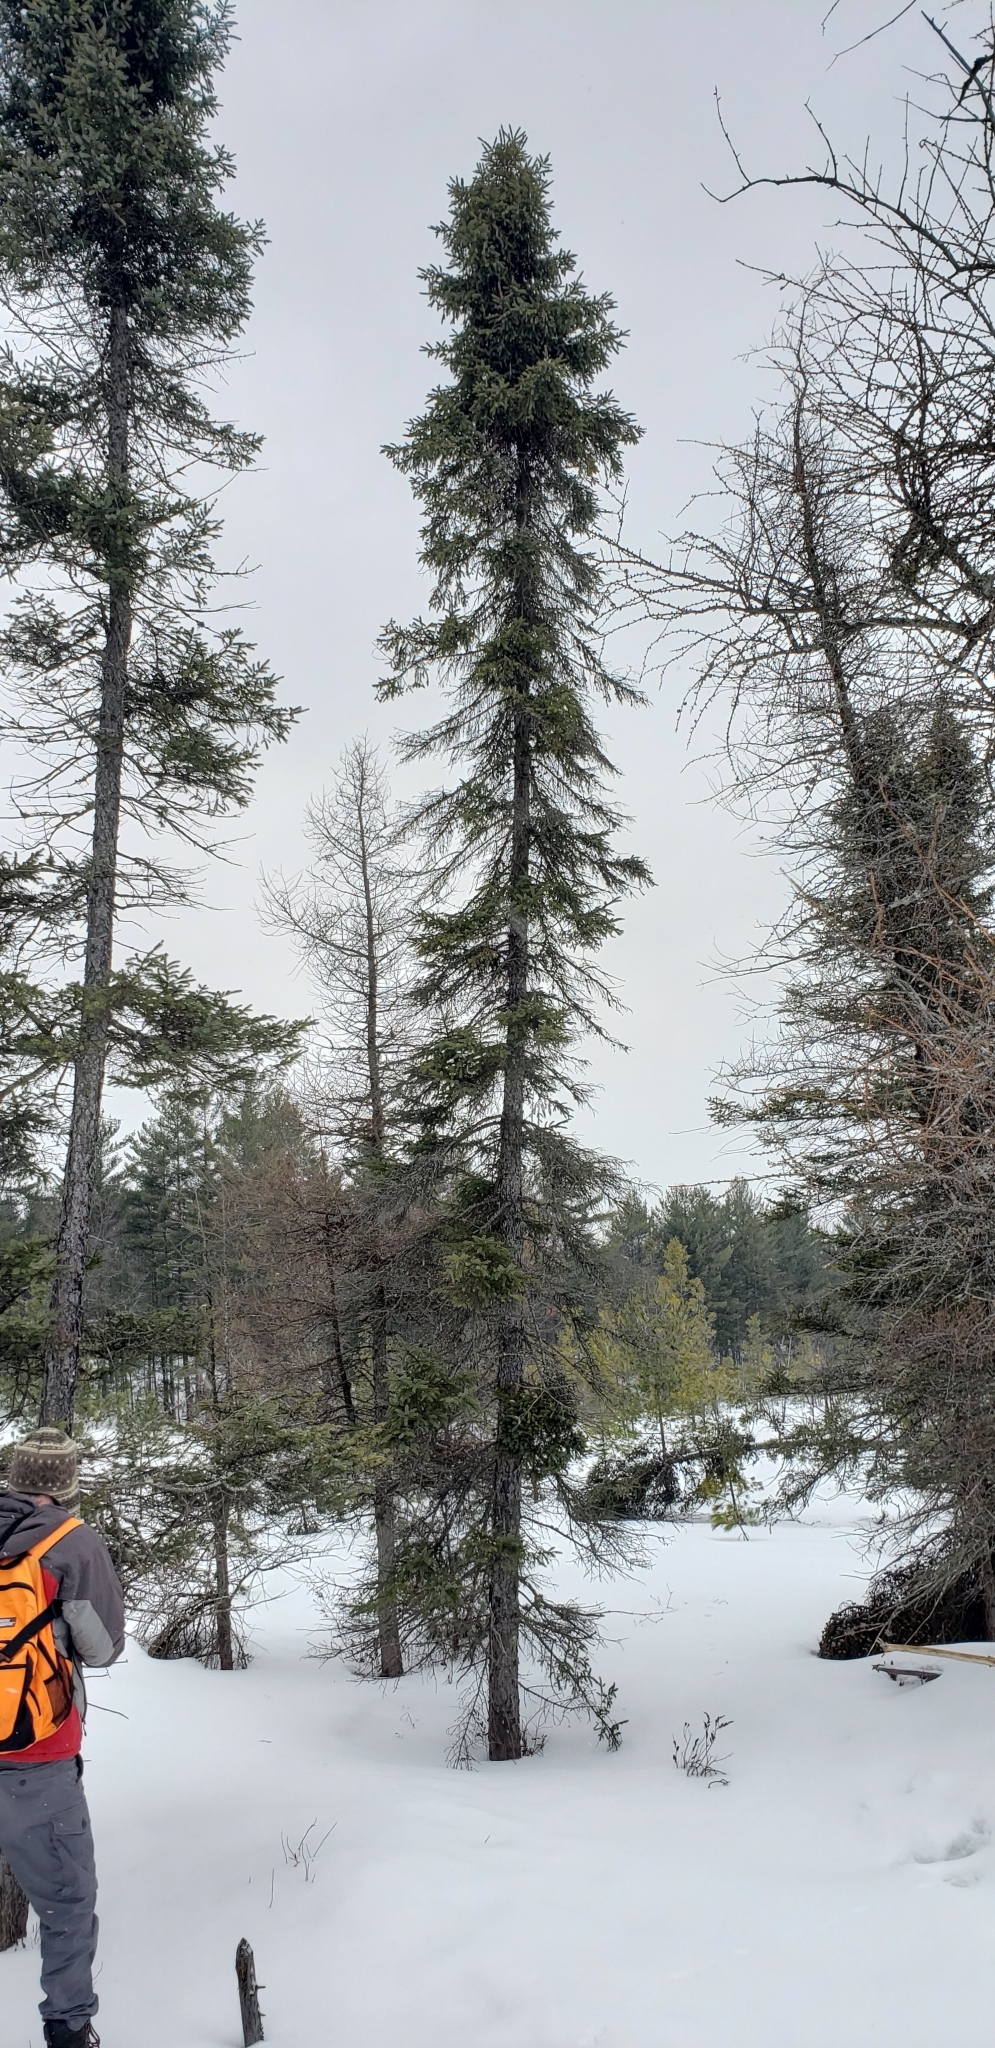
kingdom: Plantae
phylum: Tracheophyta
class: Pinopsida
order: Pinales
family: Pinaceae
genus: Picea
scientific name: Picea mariana
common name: Black spruce
